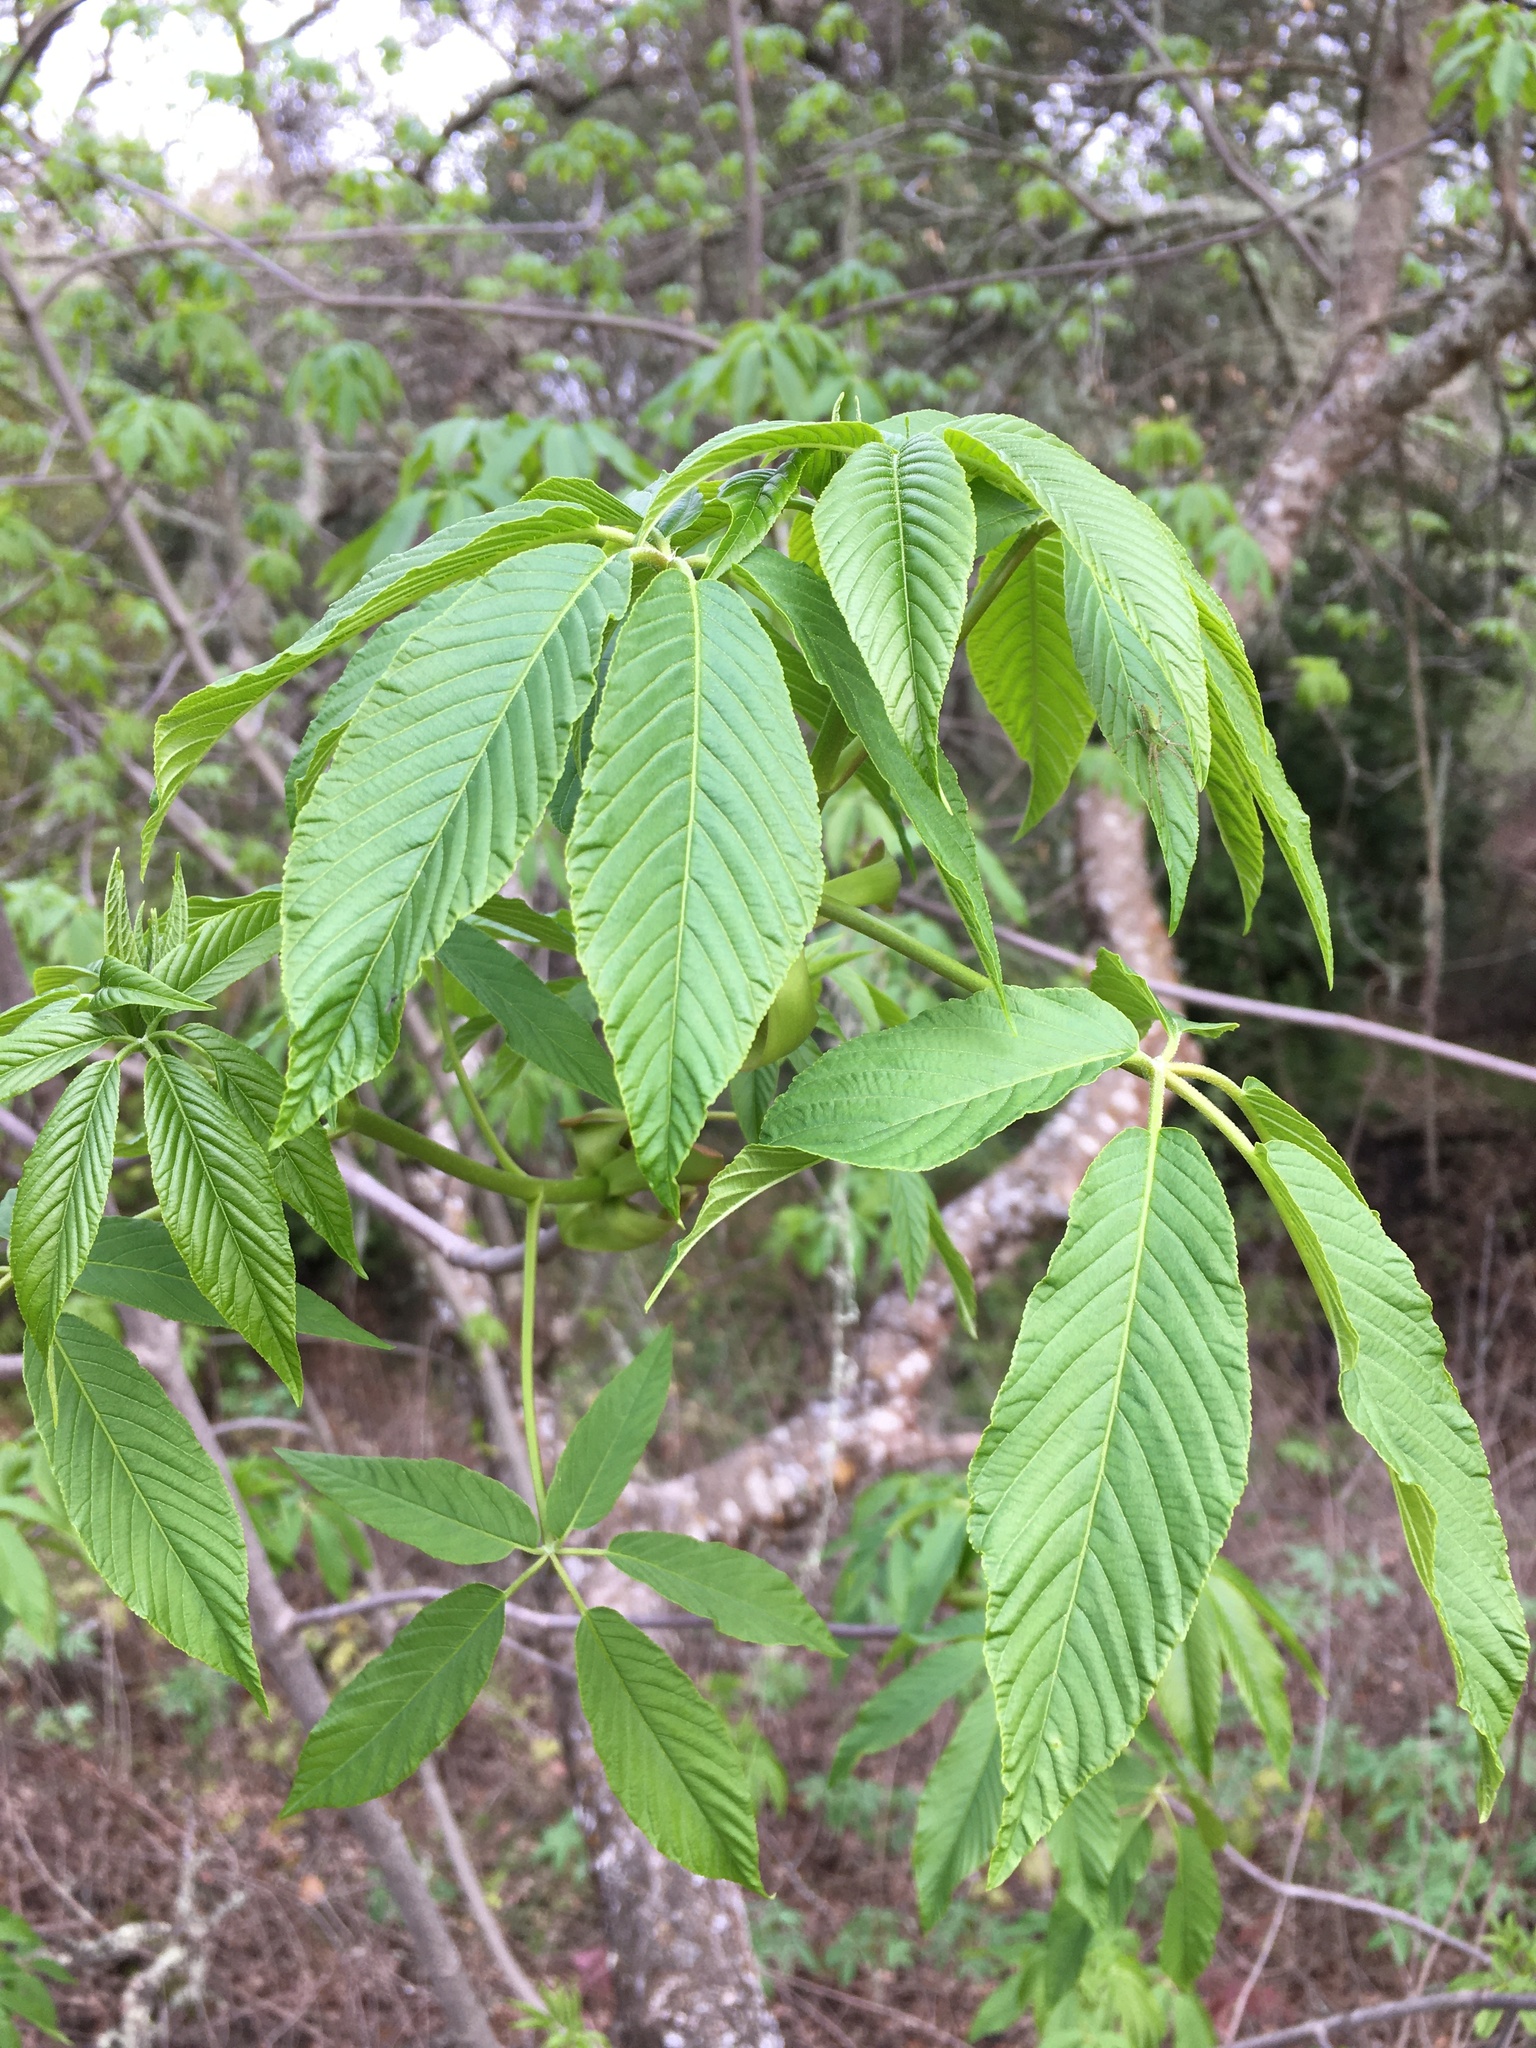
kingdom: Plantae
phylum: Tracheophyta
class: Magnoliopsida
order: Sapindales
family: Sapindaceae
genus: Aesculus
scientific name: Aesculus californica
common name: California buckeye
